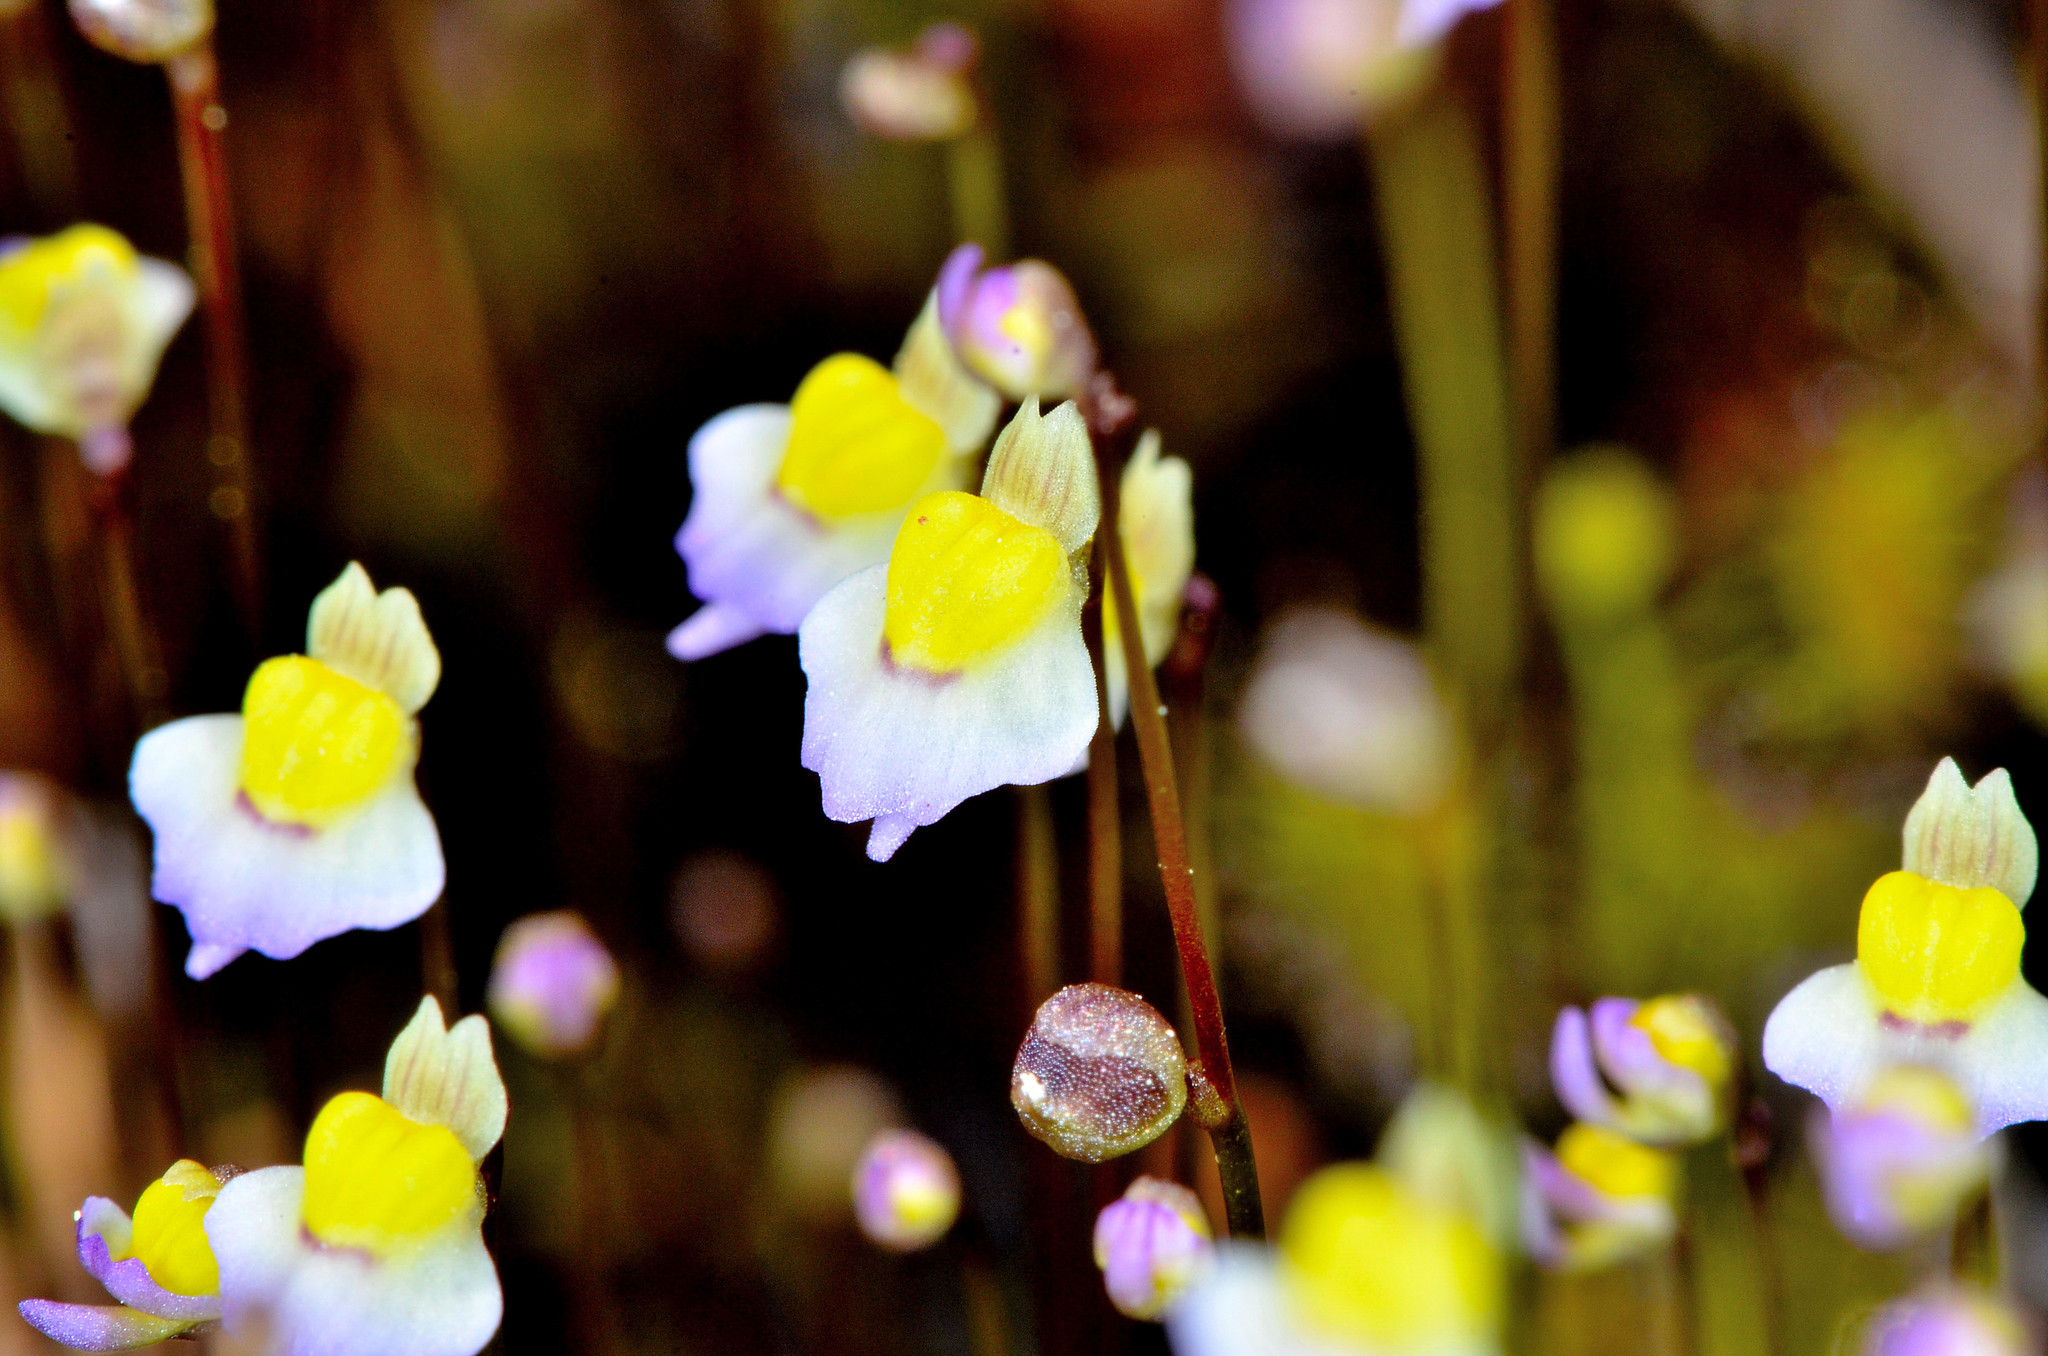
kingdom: Plantae
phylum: Tracheophyta
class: Magnoliopsida
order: Lamiales
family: Lentibulariaceae
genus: Utricularia
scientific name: Utricularia bisquamata
